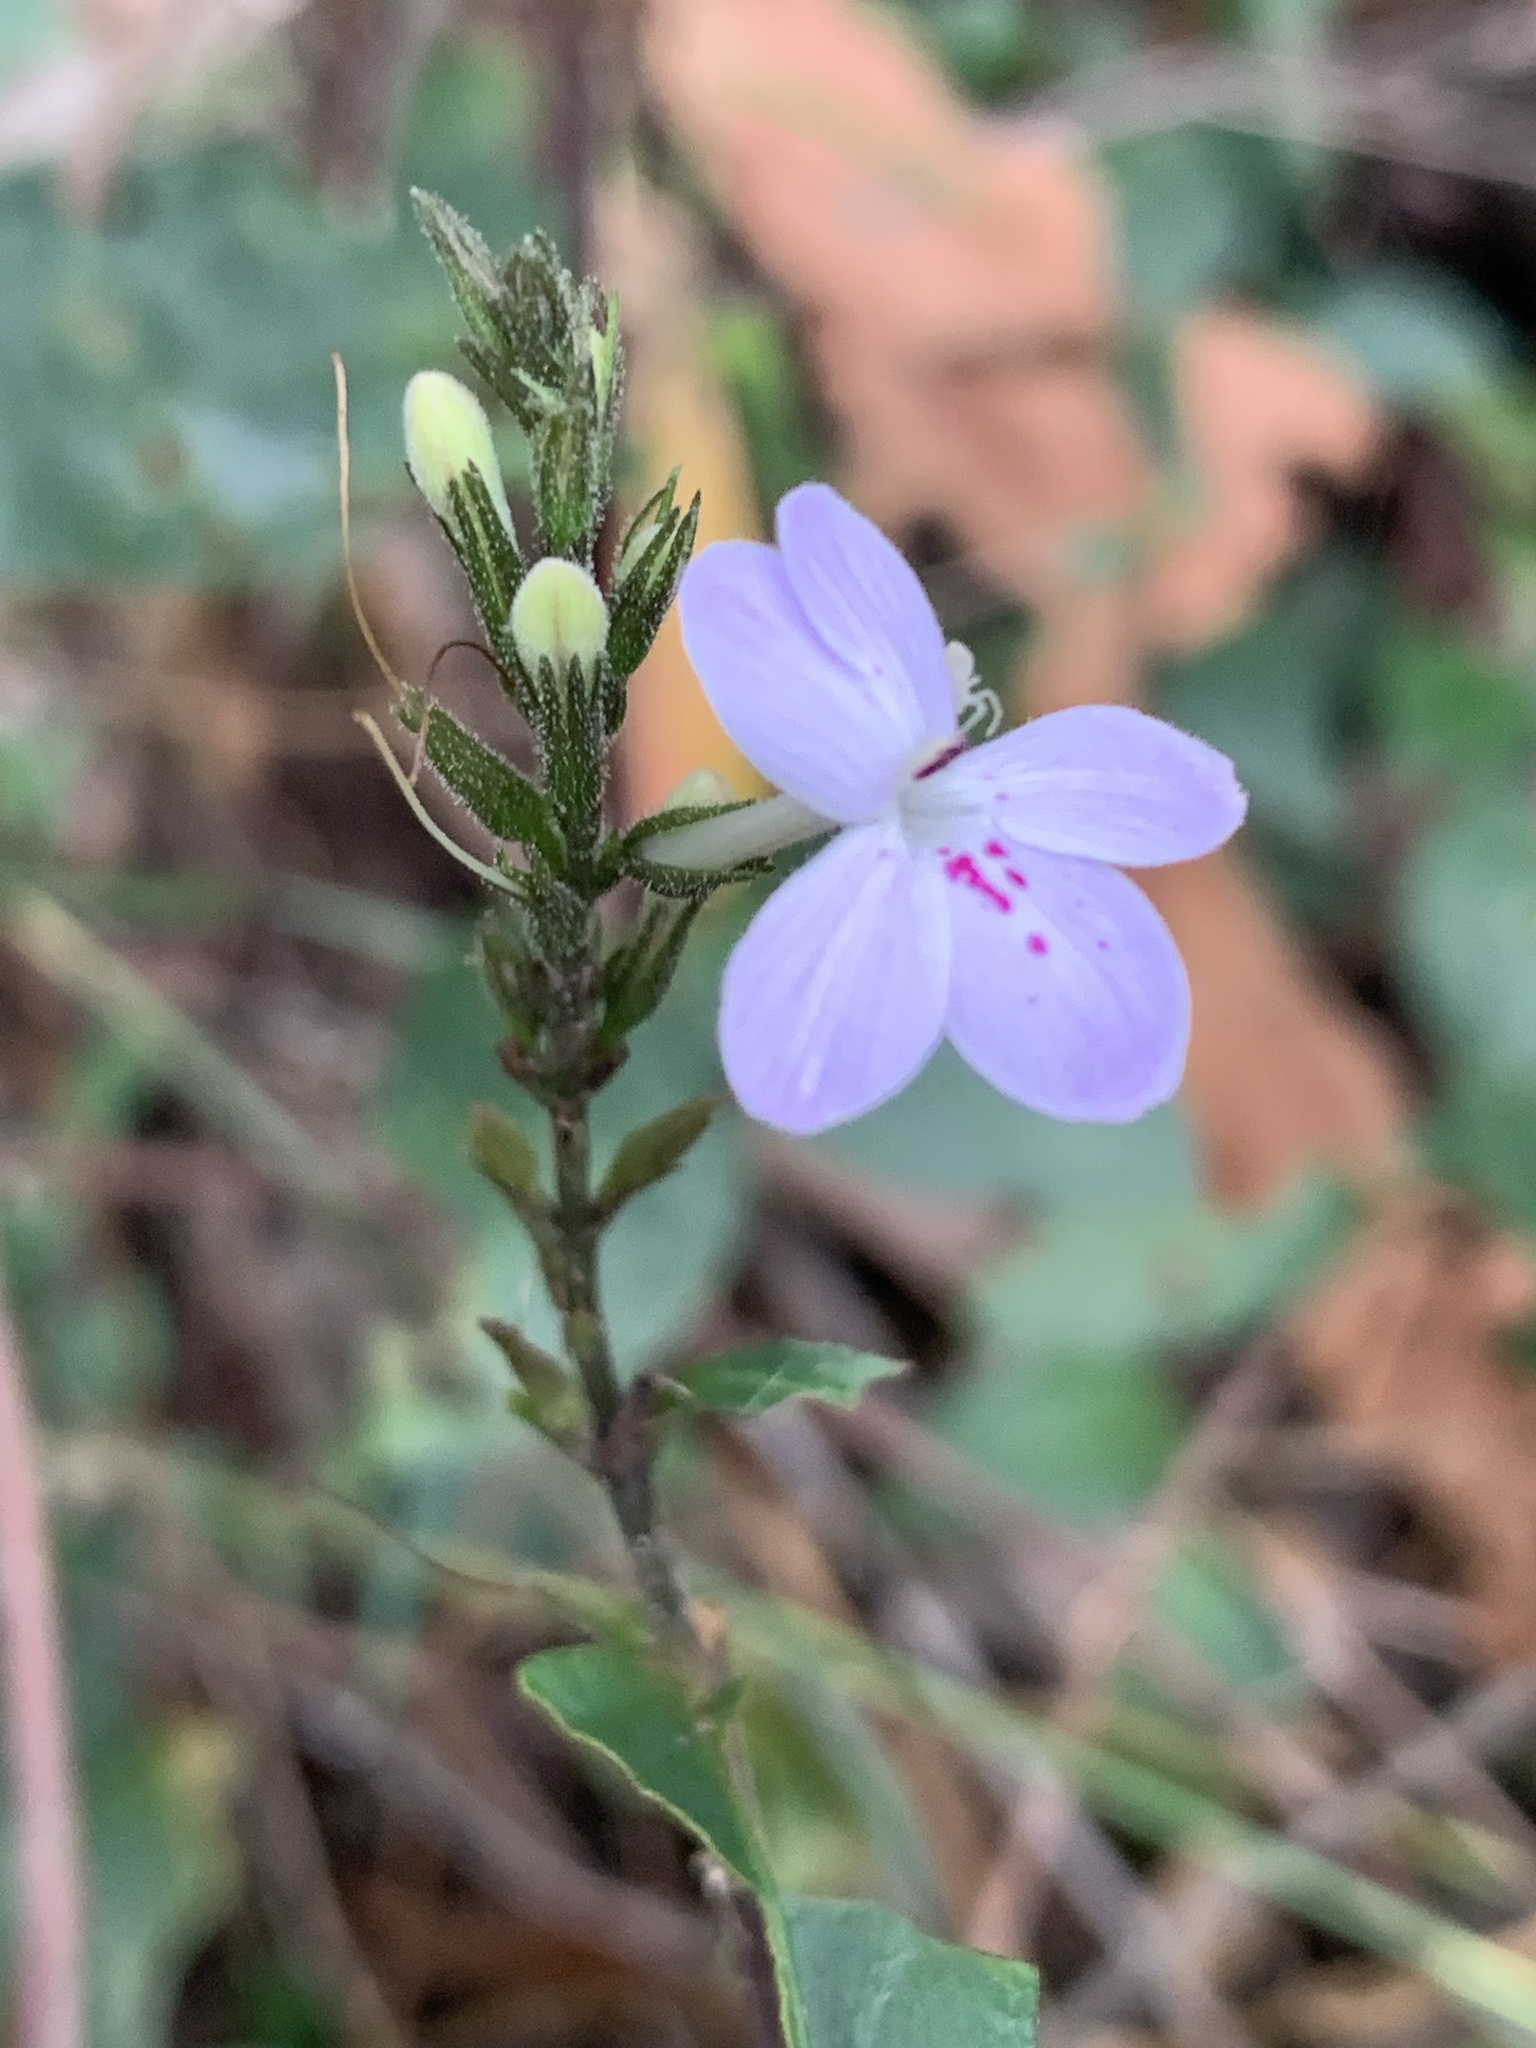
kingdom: Plantae
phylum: Tracheophyta
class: Magnoliopsida
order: Lamiales
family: Acanthaceae
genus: Pseuderanthemum
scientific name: Pseuderanthemum variabile
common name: Night and afternoon
